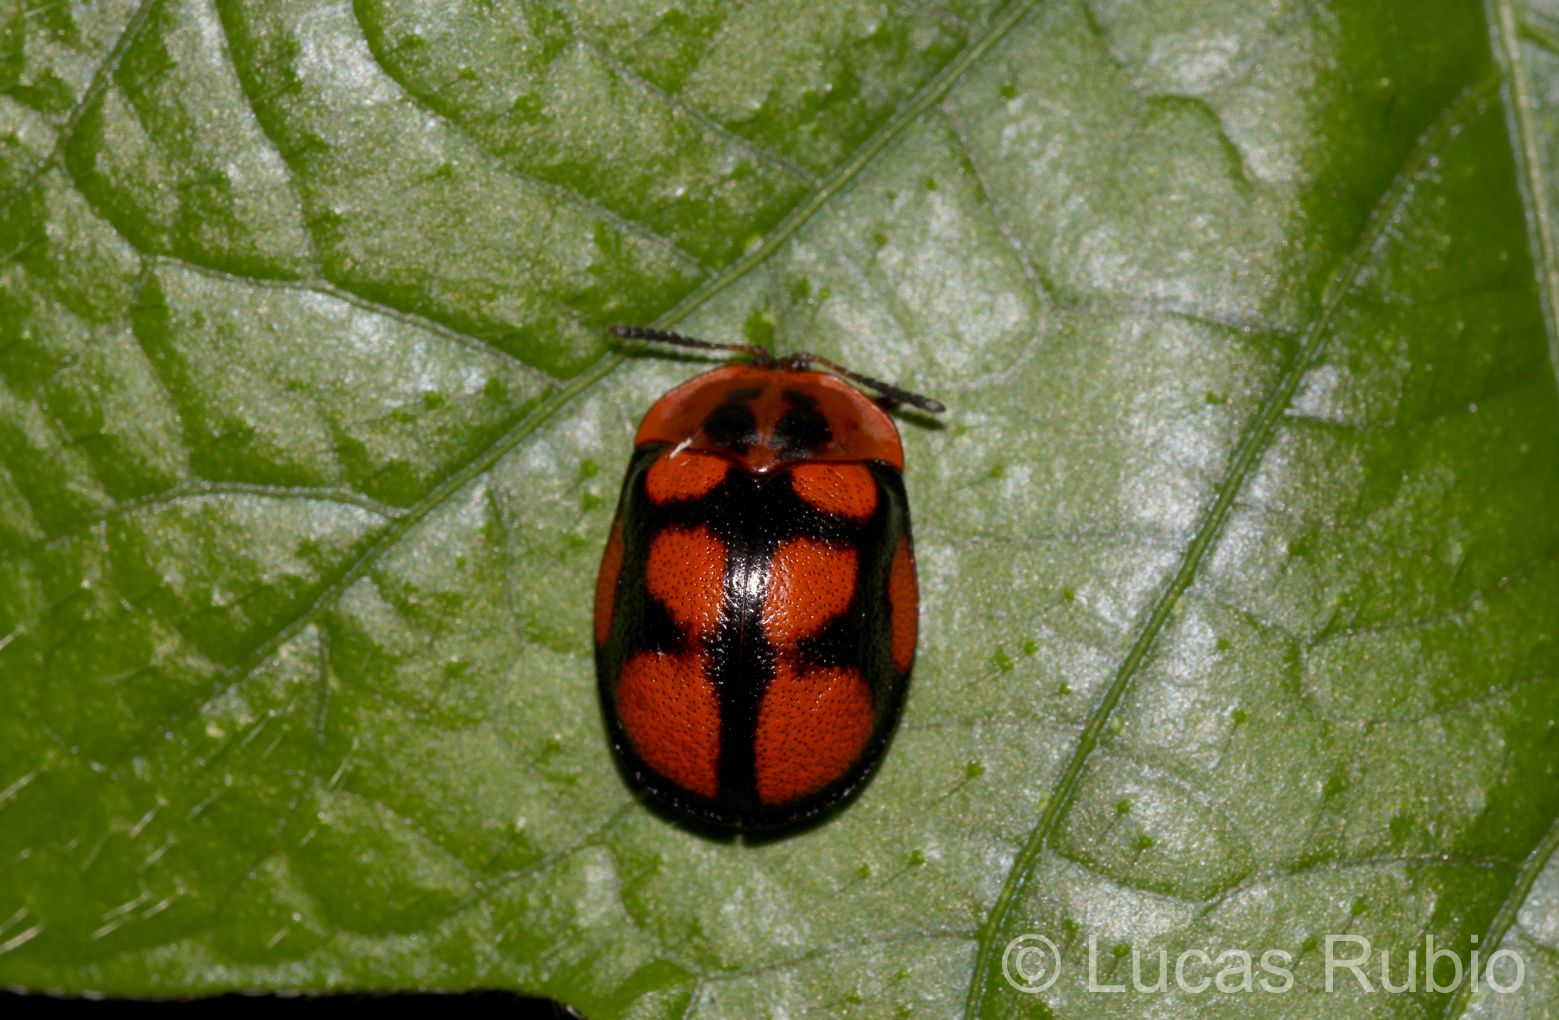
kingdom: Animalia
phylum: Arthropoda
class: Insecta
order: Coleoptera
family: Chrysomelidae
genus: Chelymorpha
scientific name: Chelymorpha areata
